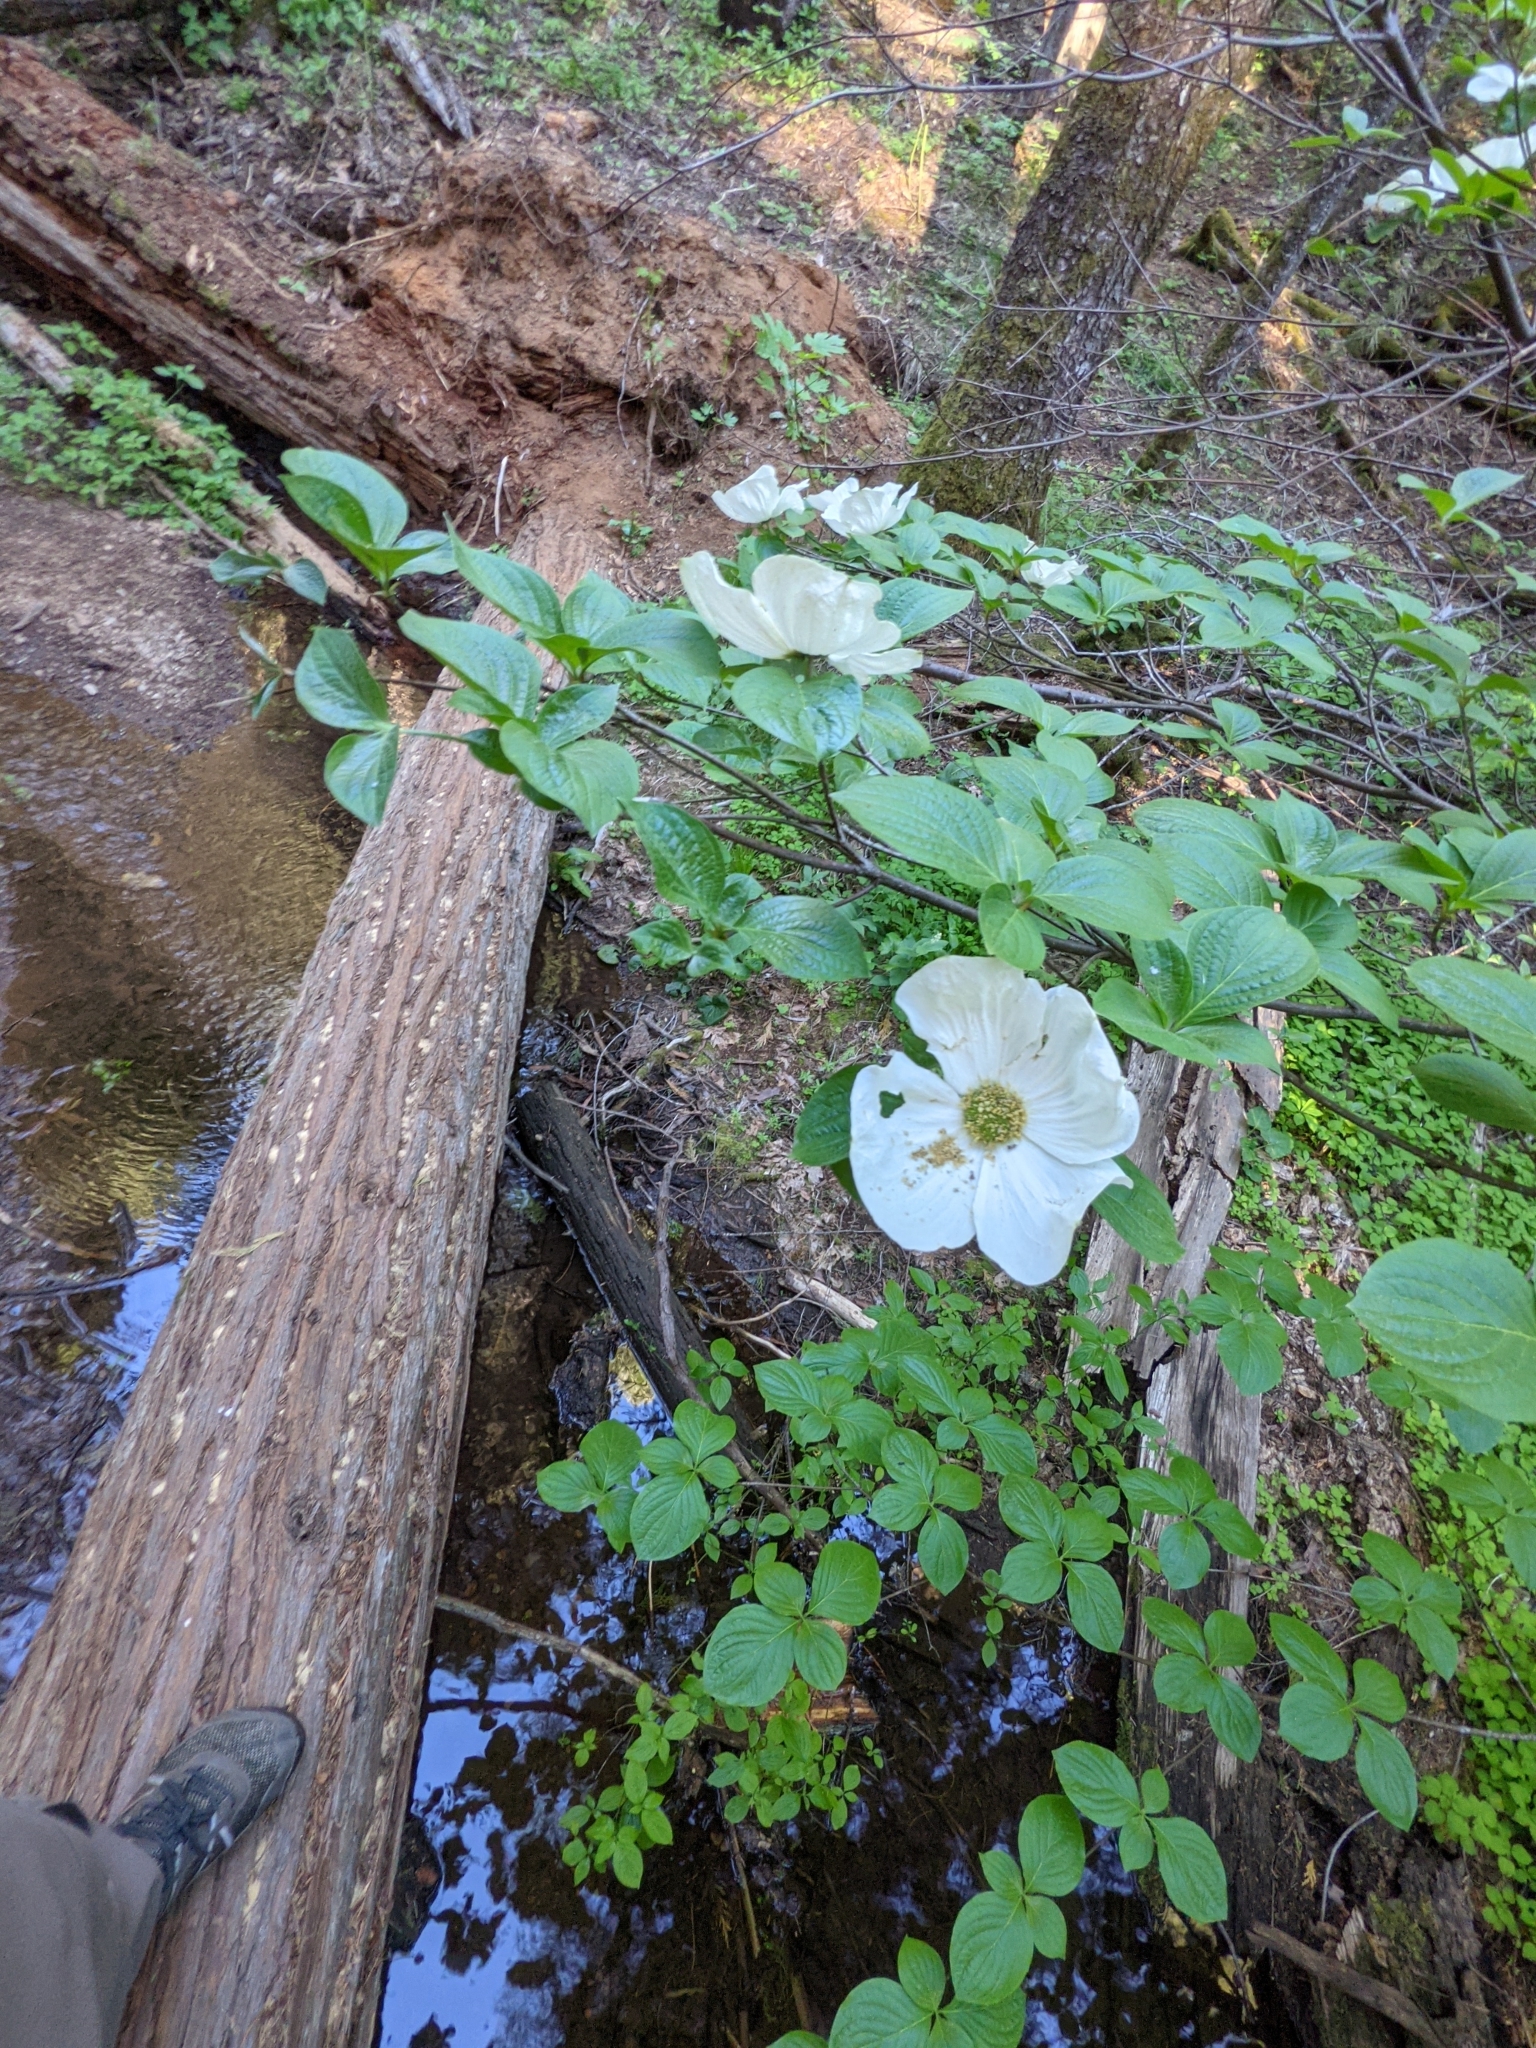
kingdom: Plantae
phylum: Tracheophyta
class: Magnoliopsida
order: Cornales
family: Cornaceae
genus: Cornus
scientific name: Cornus nuttallii
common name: Pacific dogwood
